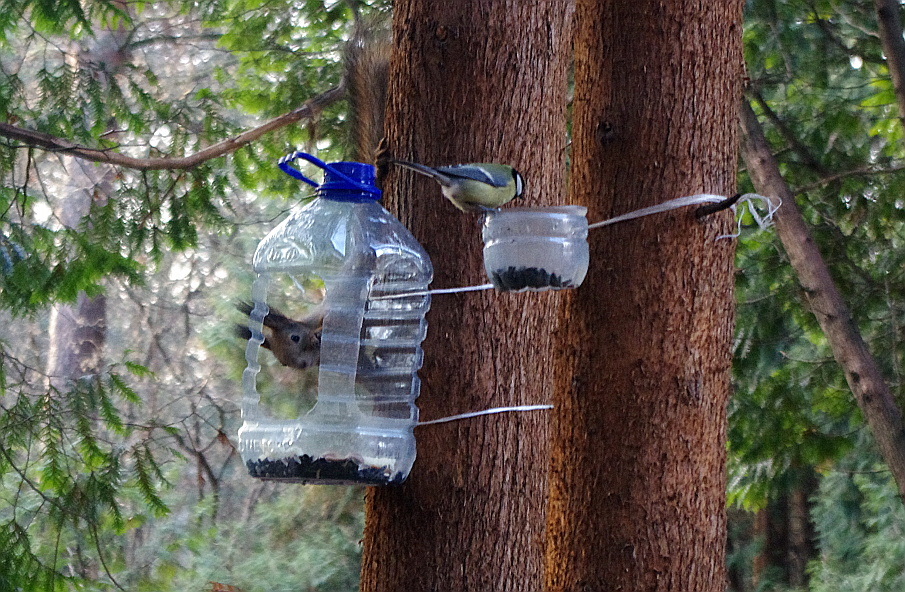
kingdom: Animalia
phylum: Chordata
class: Mammalia
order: Rodentia
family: Sciuridae
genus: Sciurus
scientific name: Sciurus vulgaris
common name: Eurasian red squirrel
